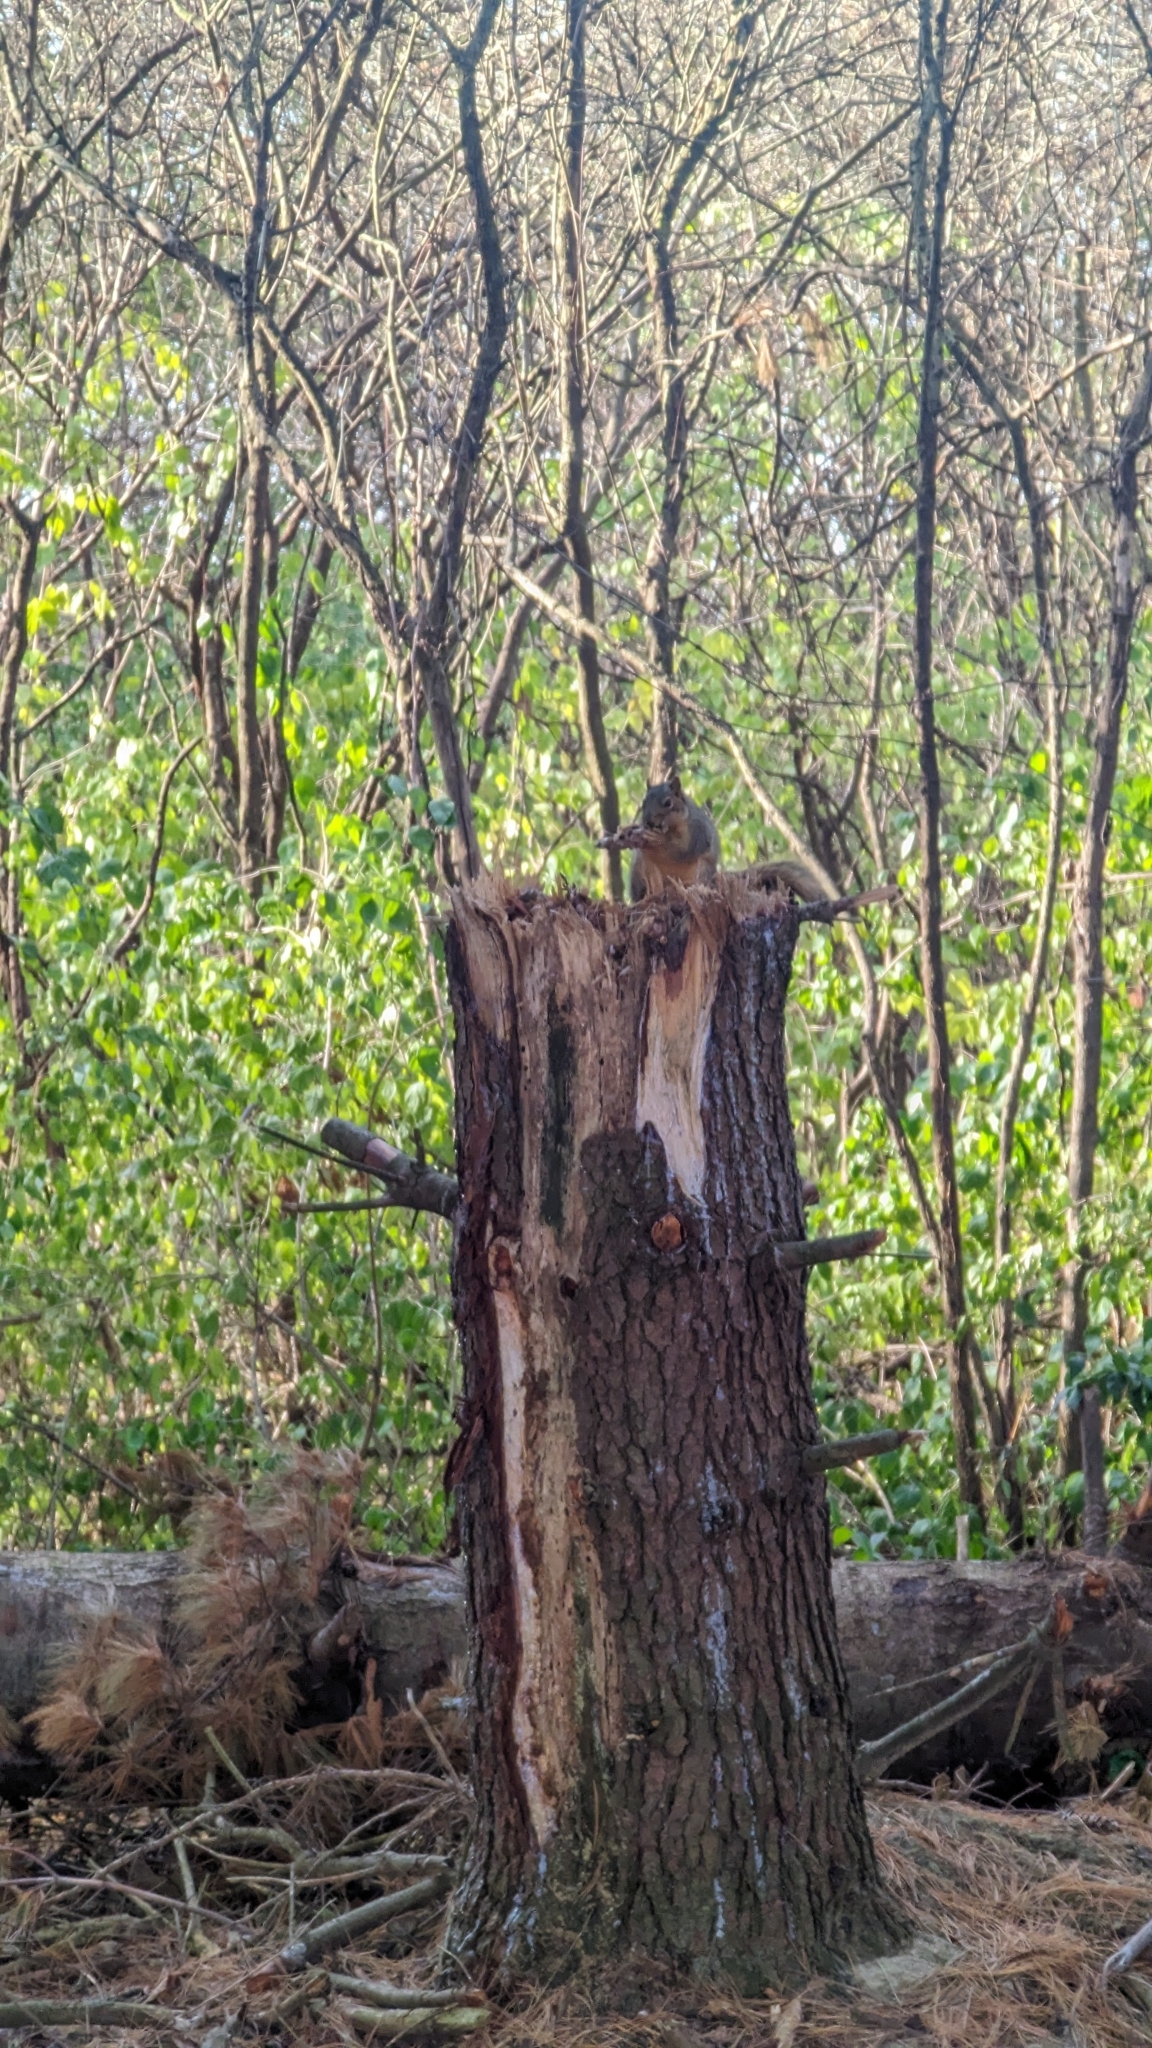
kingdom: Animalia
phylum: Chordata
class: Mammalia
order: Rodentia
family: Sciuridae
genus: Sciurus
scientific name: Sciurus niger
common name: Fox squirrel
